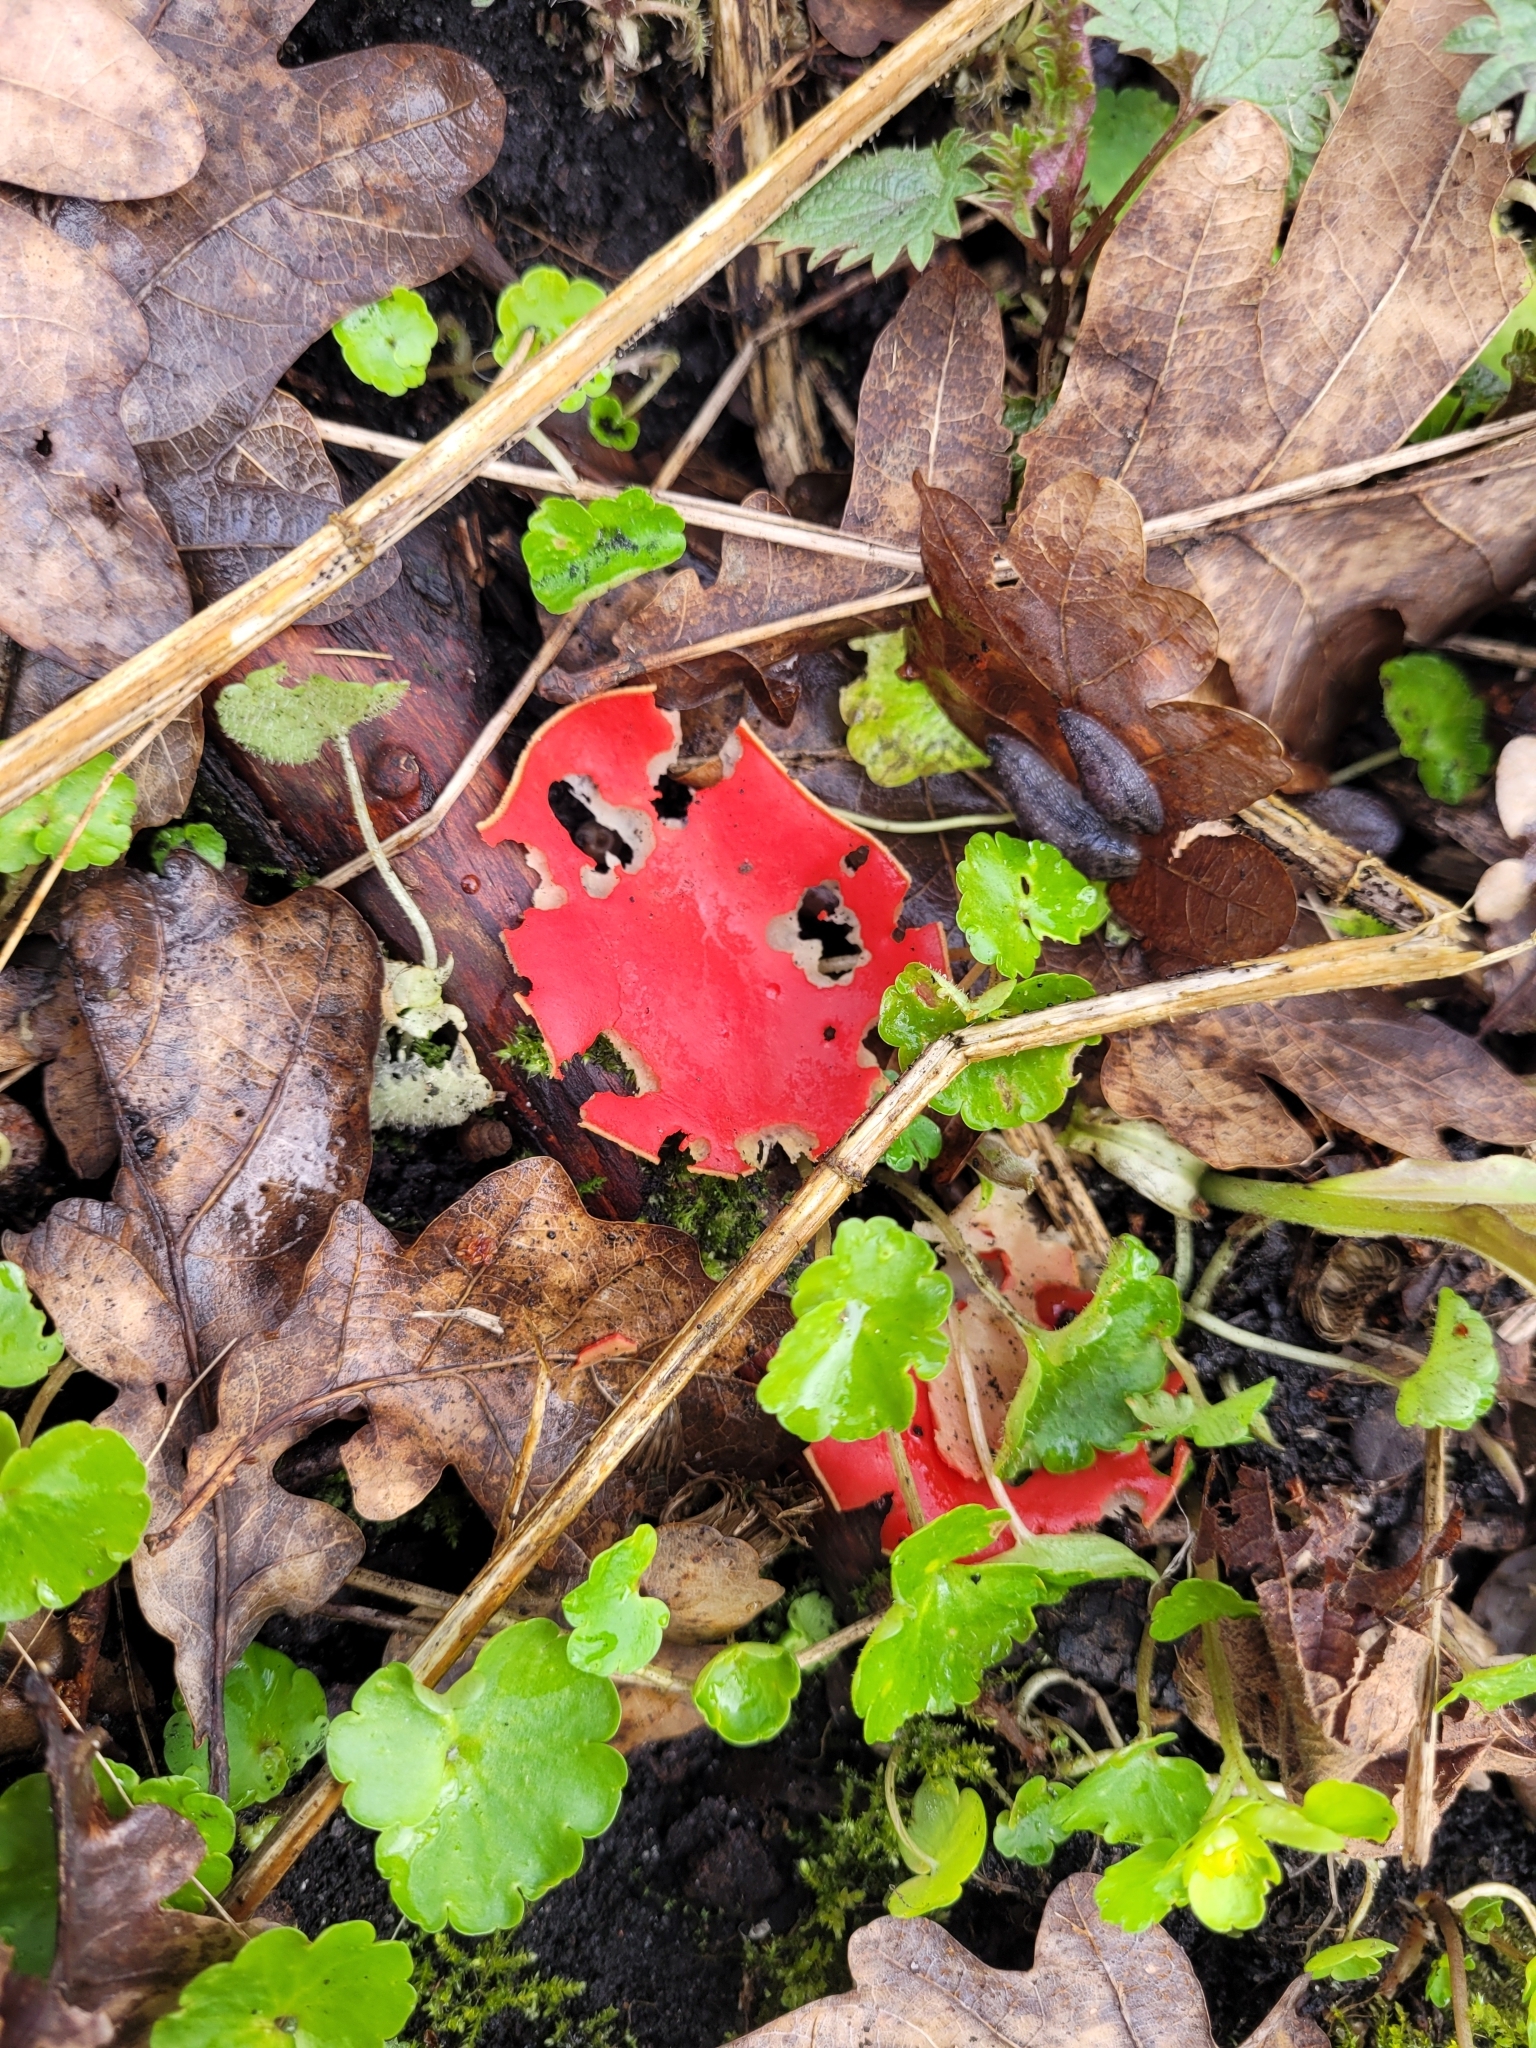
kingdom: Fungi
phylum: Ascomycota
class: Pezizomycetes
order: Pezizales
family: Sarcoscyphaceae
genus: Sarcoscypha
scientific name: Sarcoscypha
